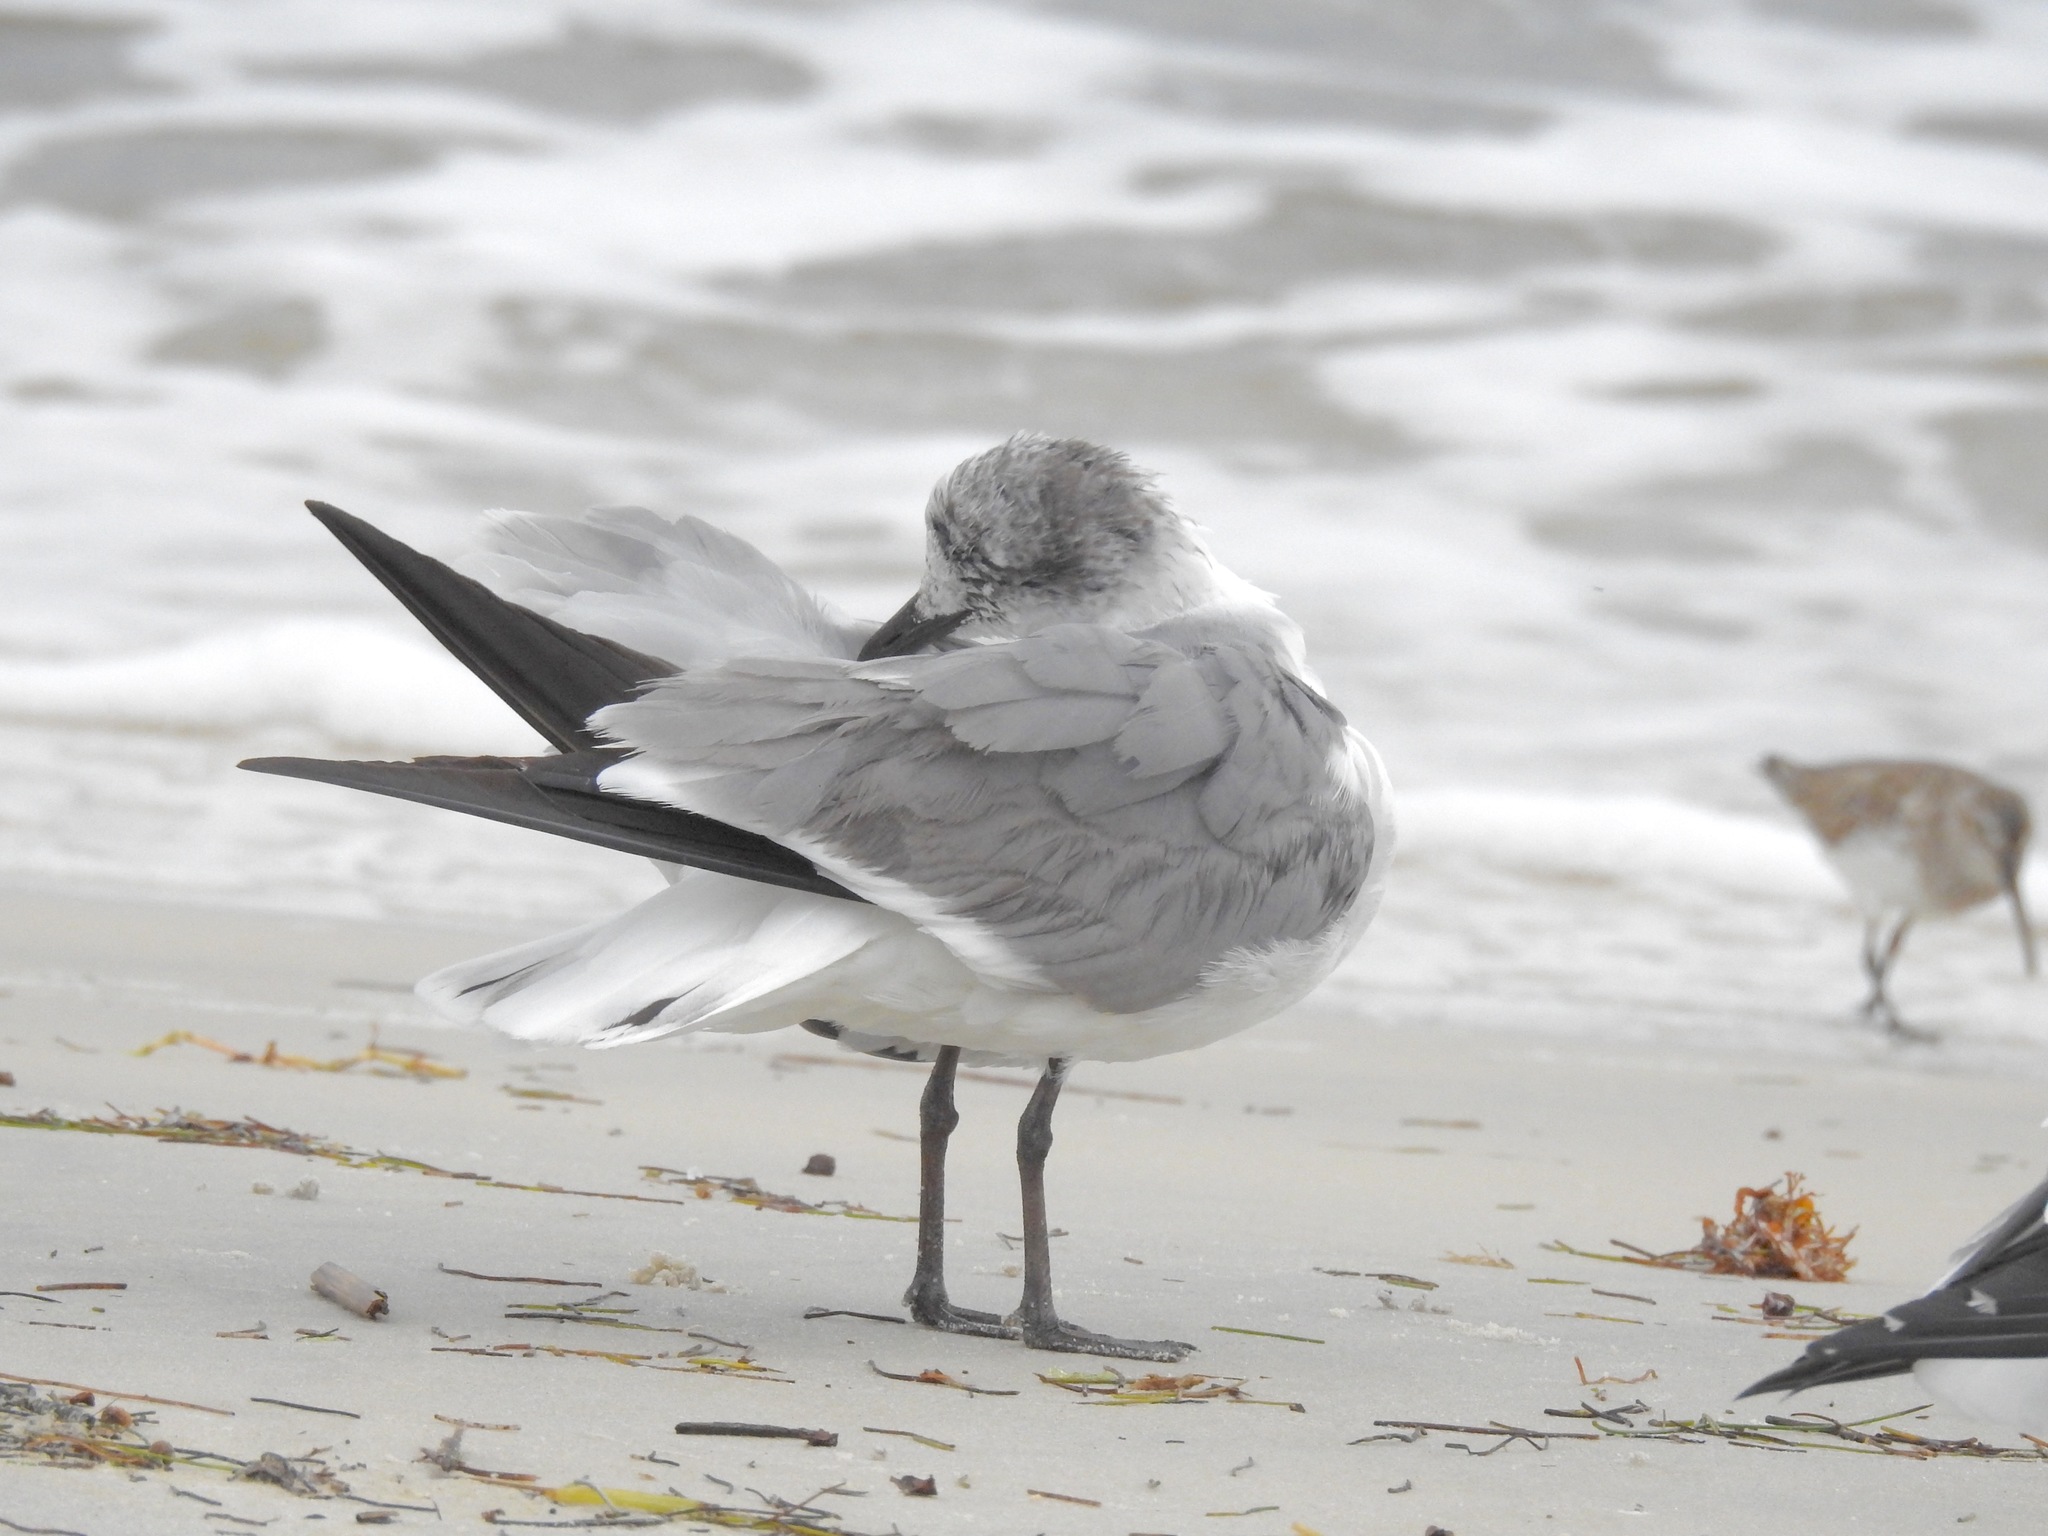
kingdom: Animalia
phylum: Chordata
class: Aves
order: Charadriiformes
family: Laridae
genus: Leucophaeus
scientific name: Leucophaeus atricilla
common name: Laughing gull
